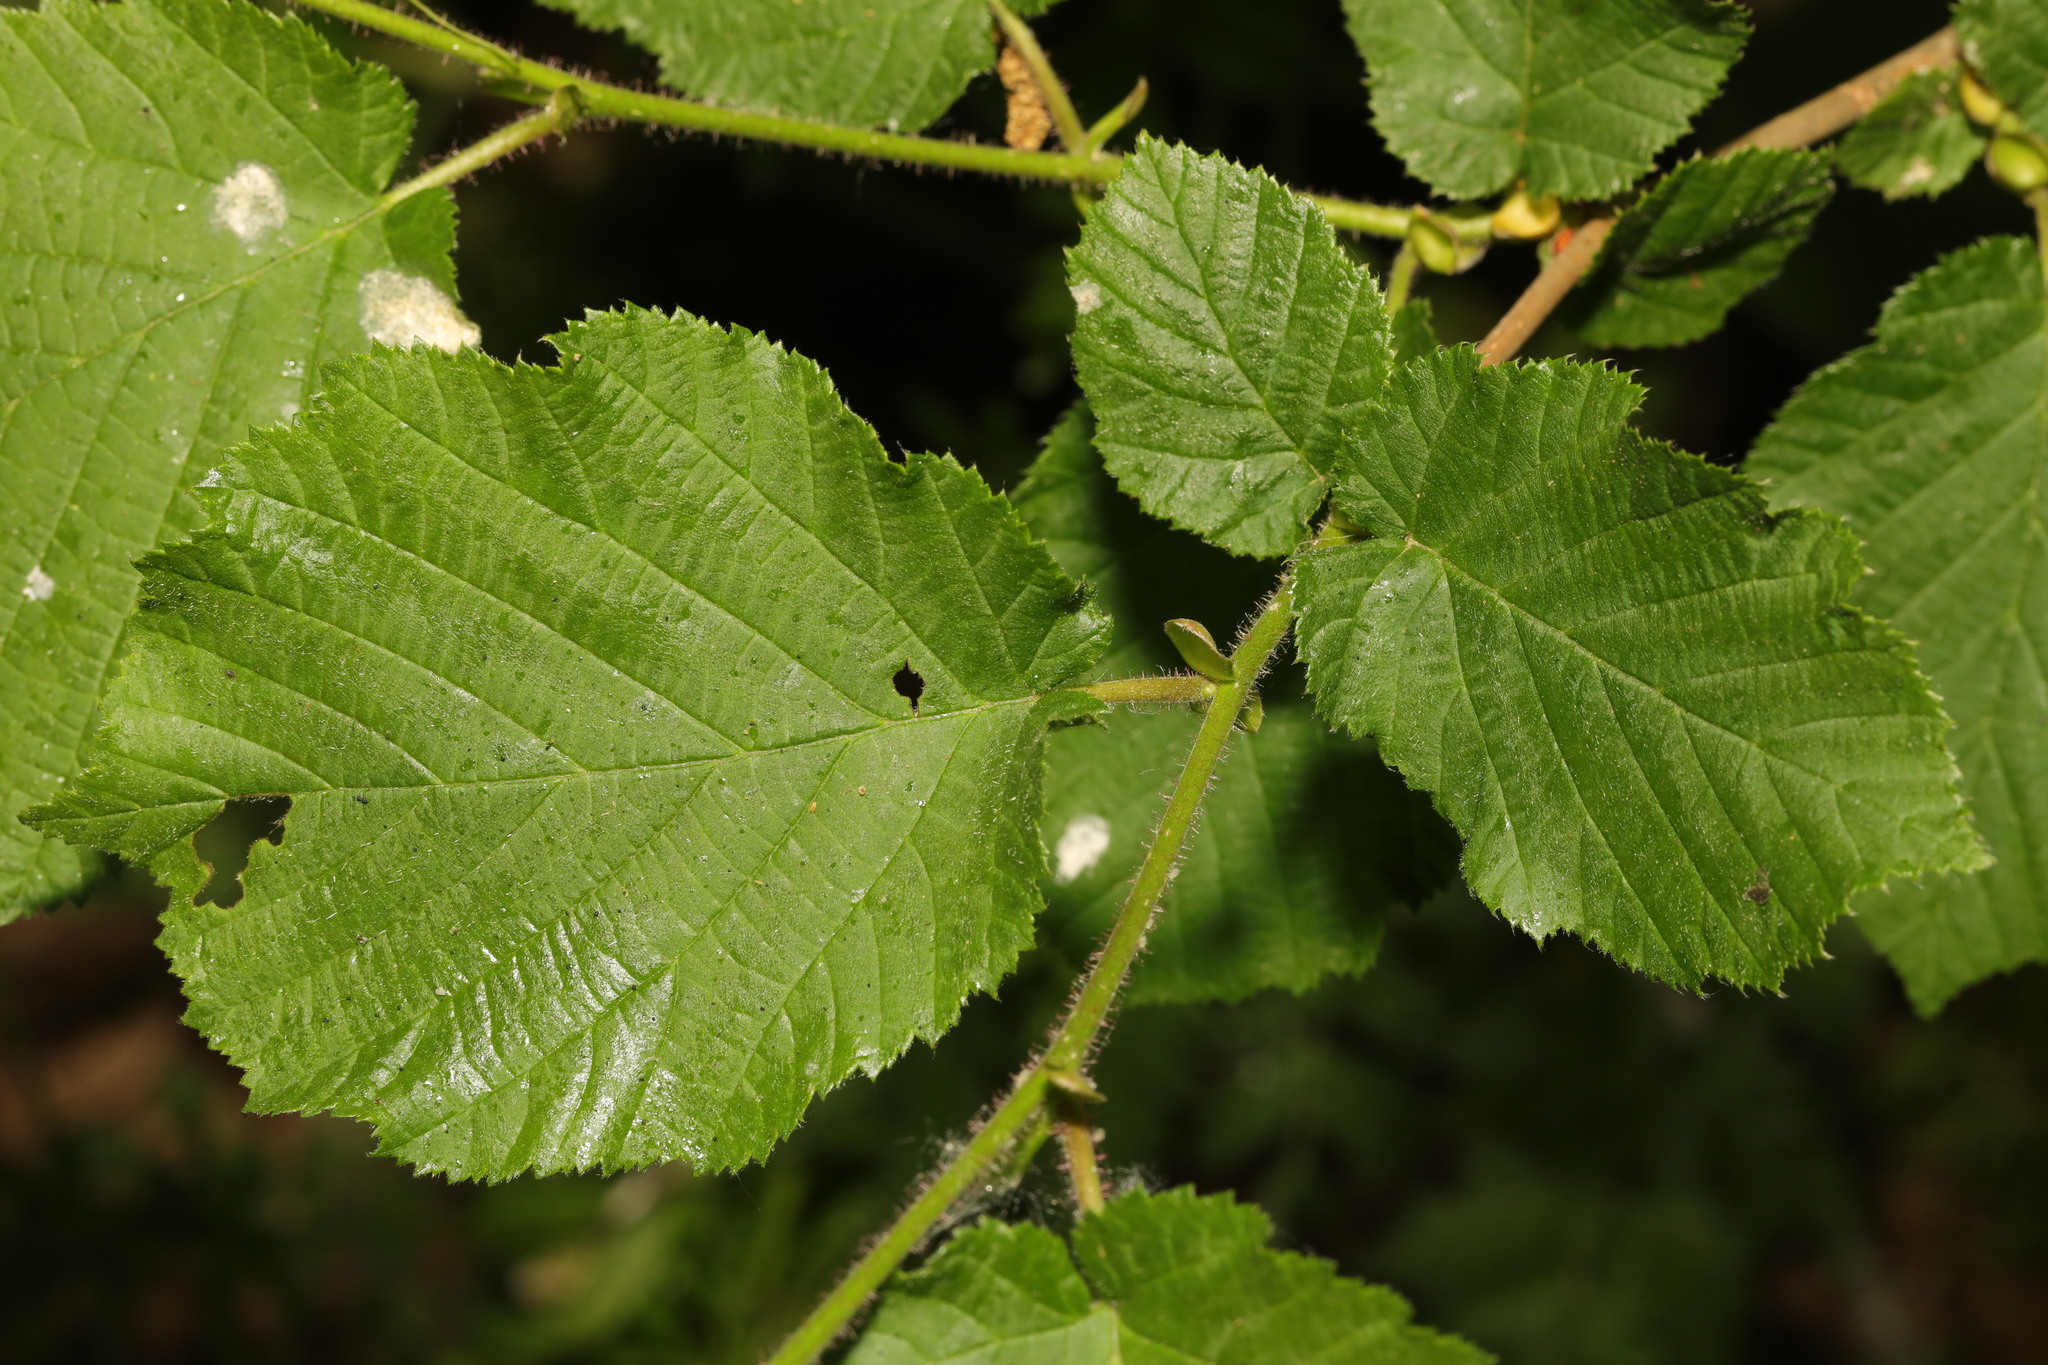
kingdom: Plantae
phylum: Tracheophyta
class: Magnoliopsida
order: Fagales
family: Betulaceae
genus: Corylus
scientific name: Corylus avellana
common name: European hazel
